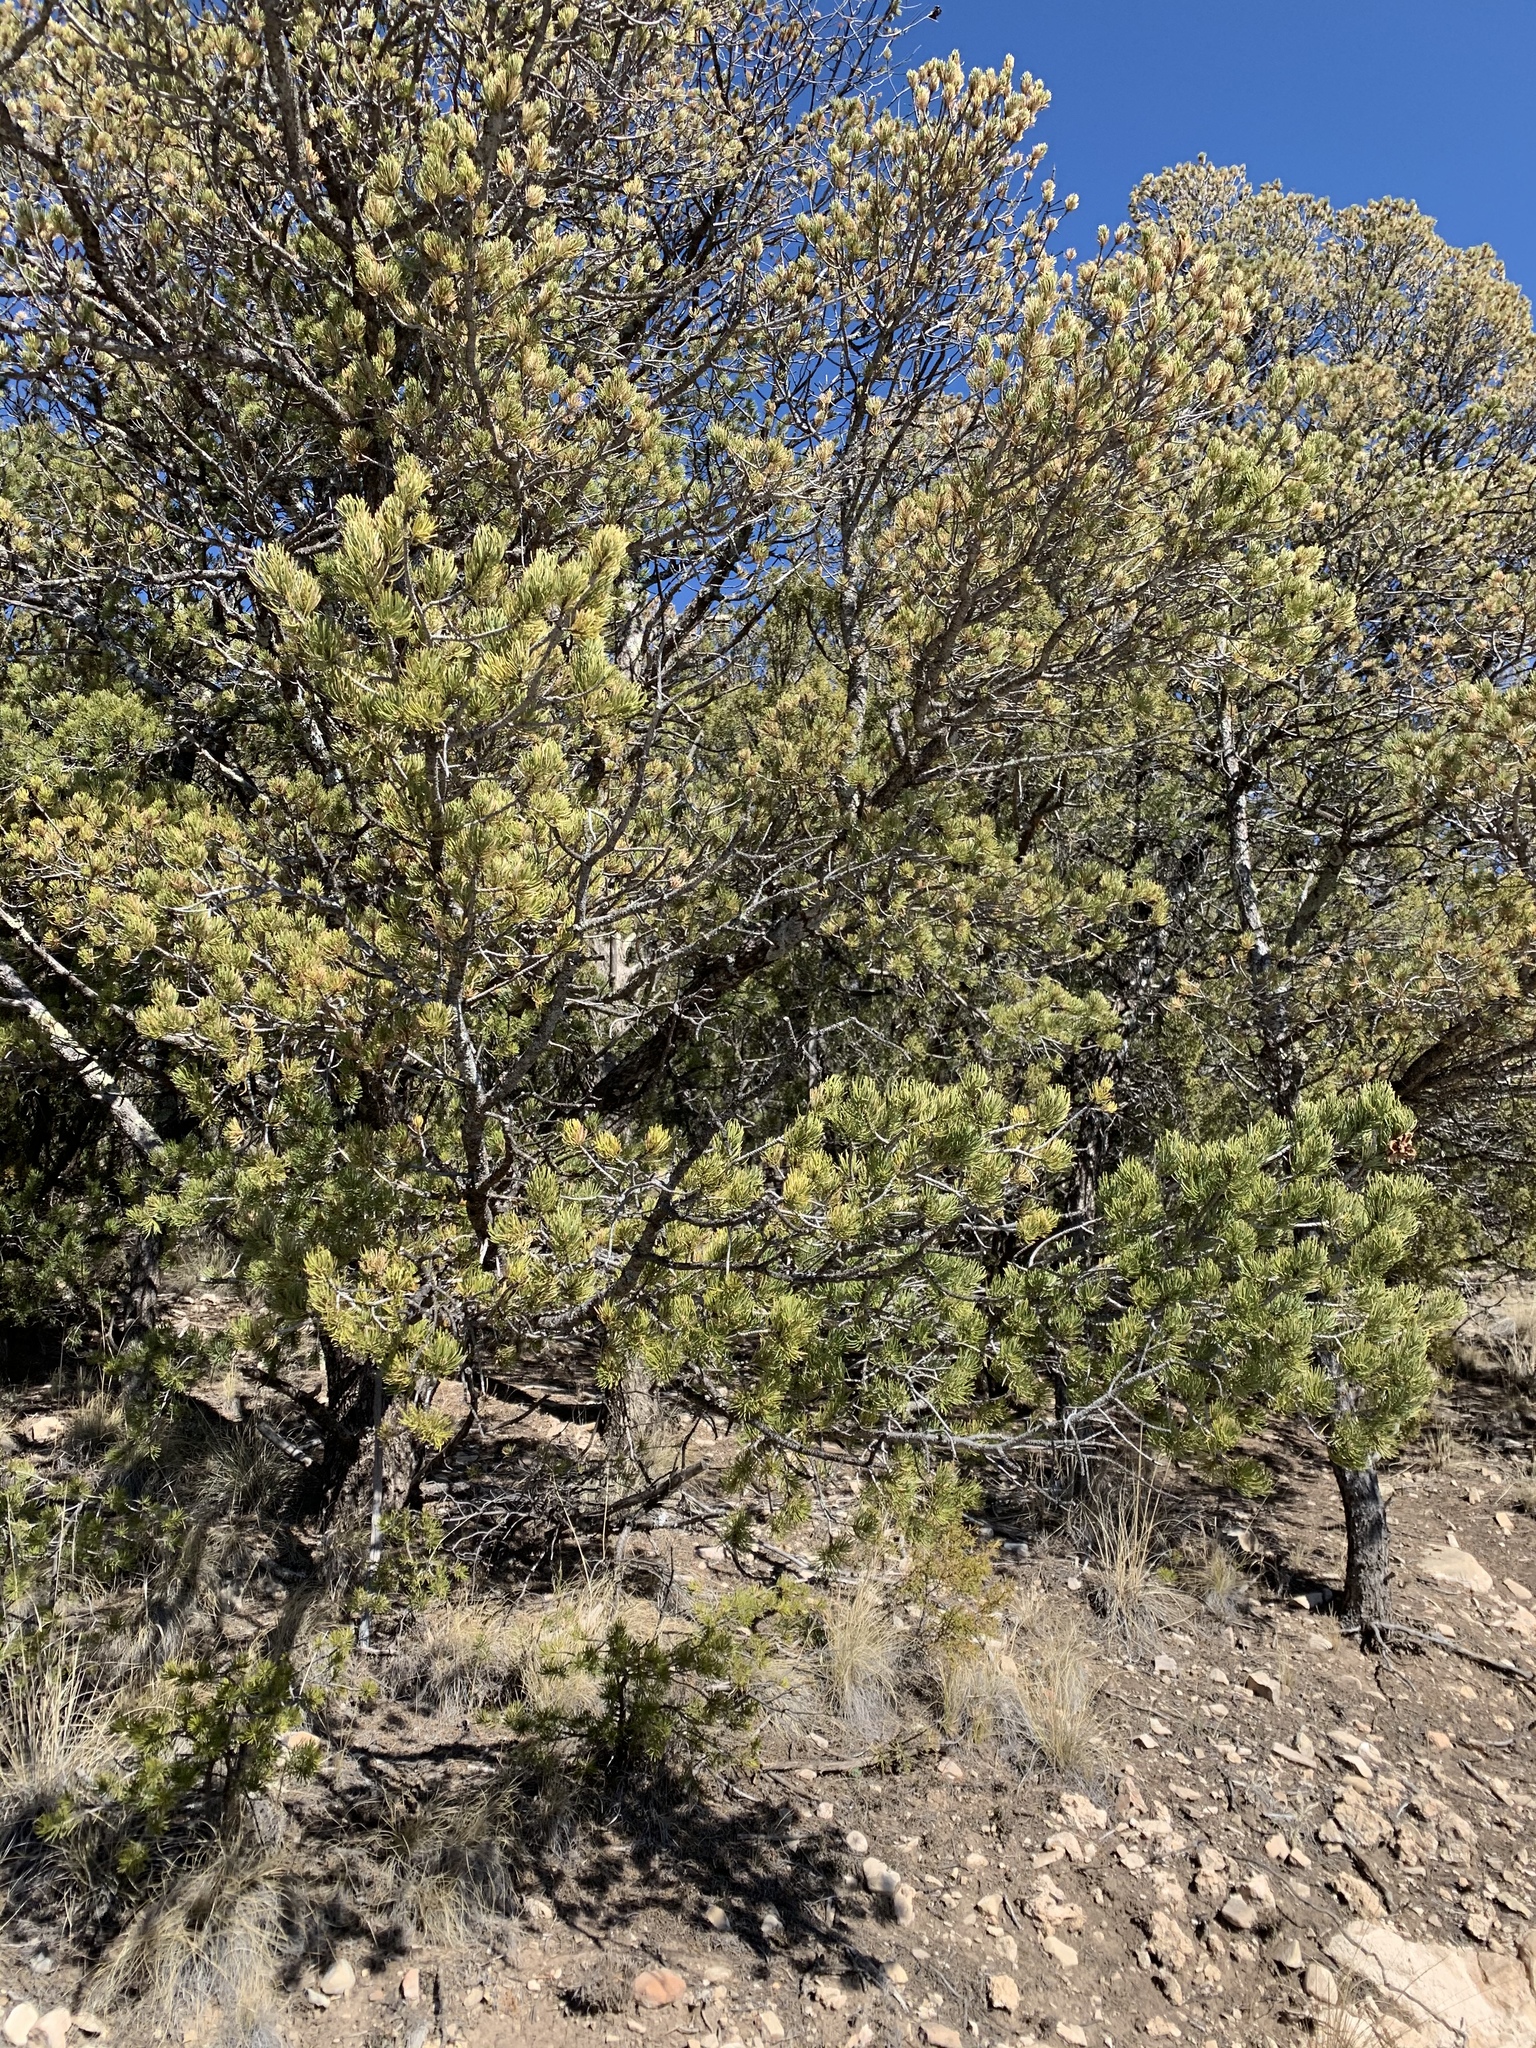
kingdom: Plantae
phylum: Tracheophyta
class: Pinopsida
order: Pinales
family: Pinaceae
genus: Pinus
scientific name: Pinus edulis
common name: Colorado pinyon
